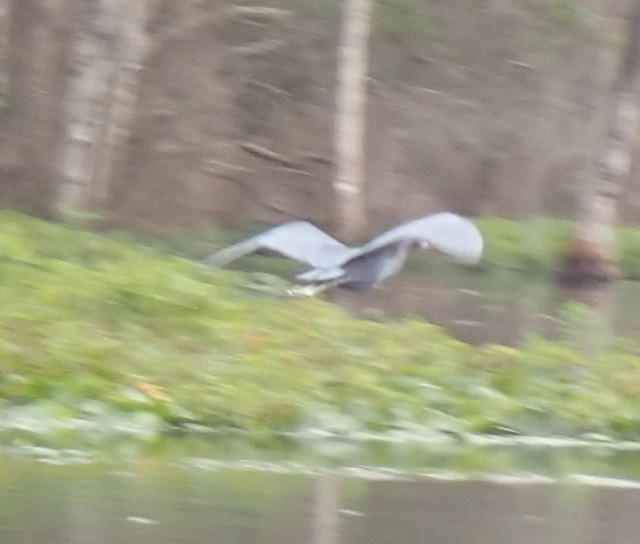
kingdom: Animalia
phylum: Chordata
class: Aves
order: Pelecaniformes
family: Ardeidae
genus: Egretta
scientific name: Egretta caerulea
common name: Little blue heron
